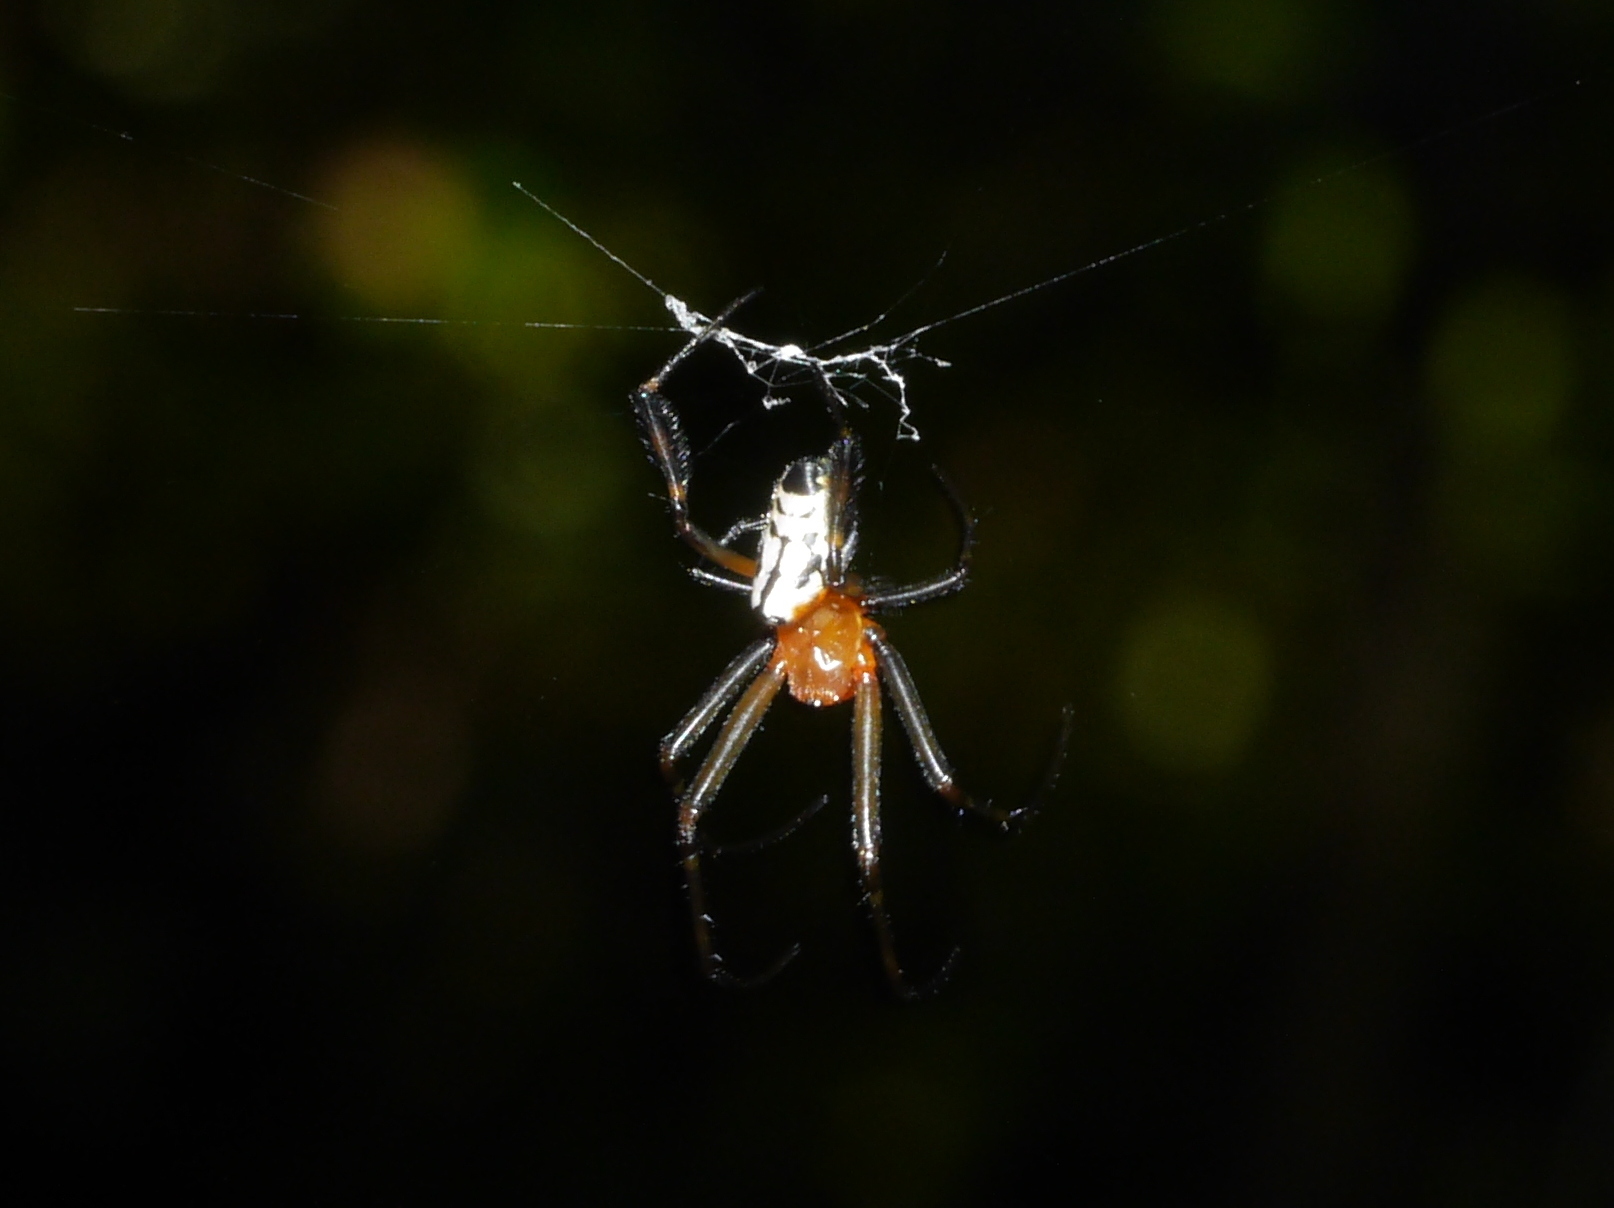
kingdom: Animalia
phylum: Arthropoda
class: Arachnida
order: Araneae
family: Tetragnathidae
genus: Leucauge
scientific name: Leucauge fastigata
